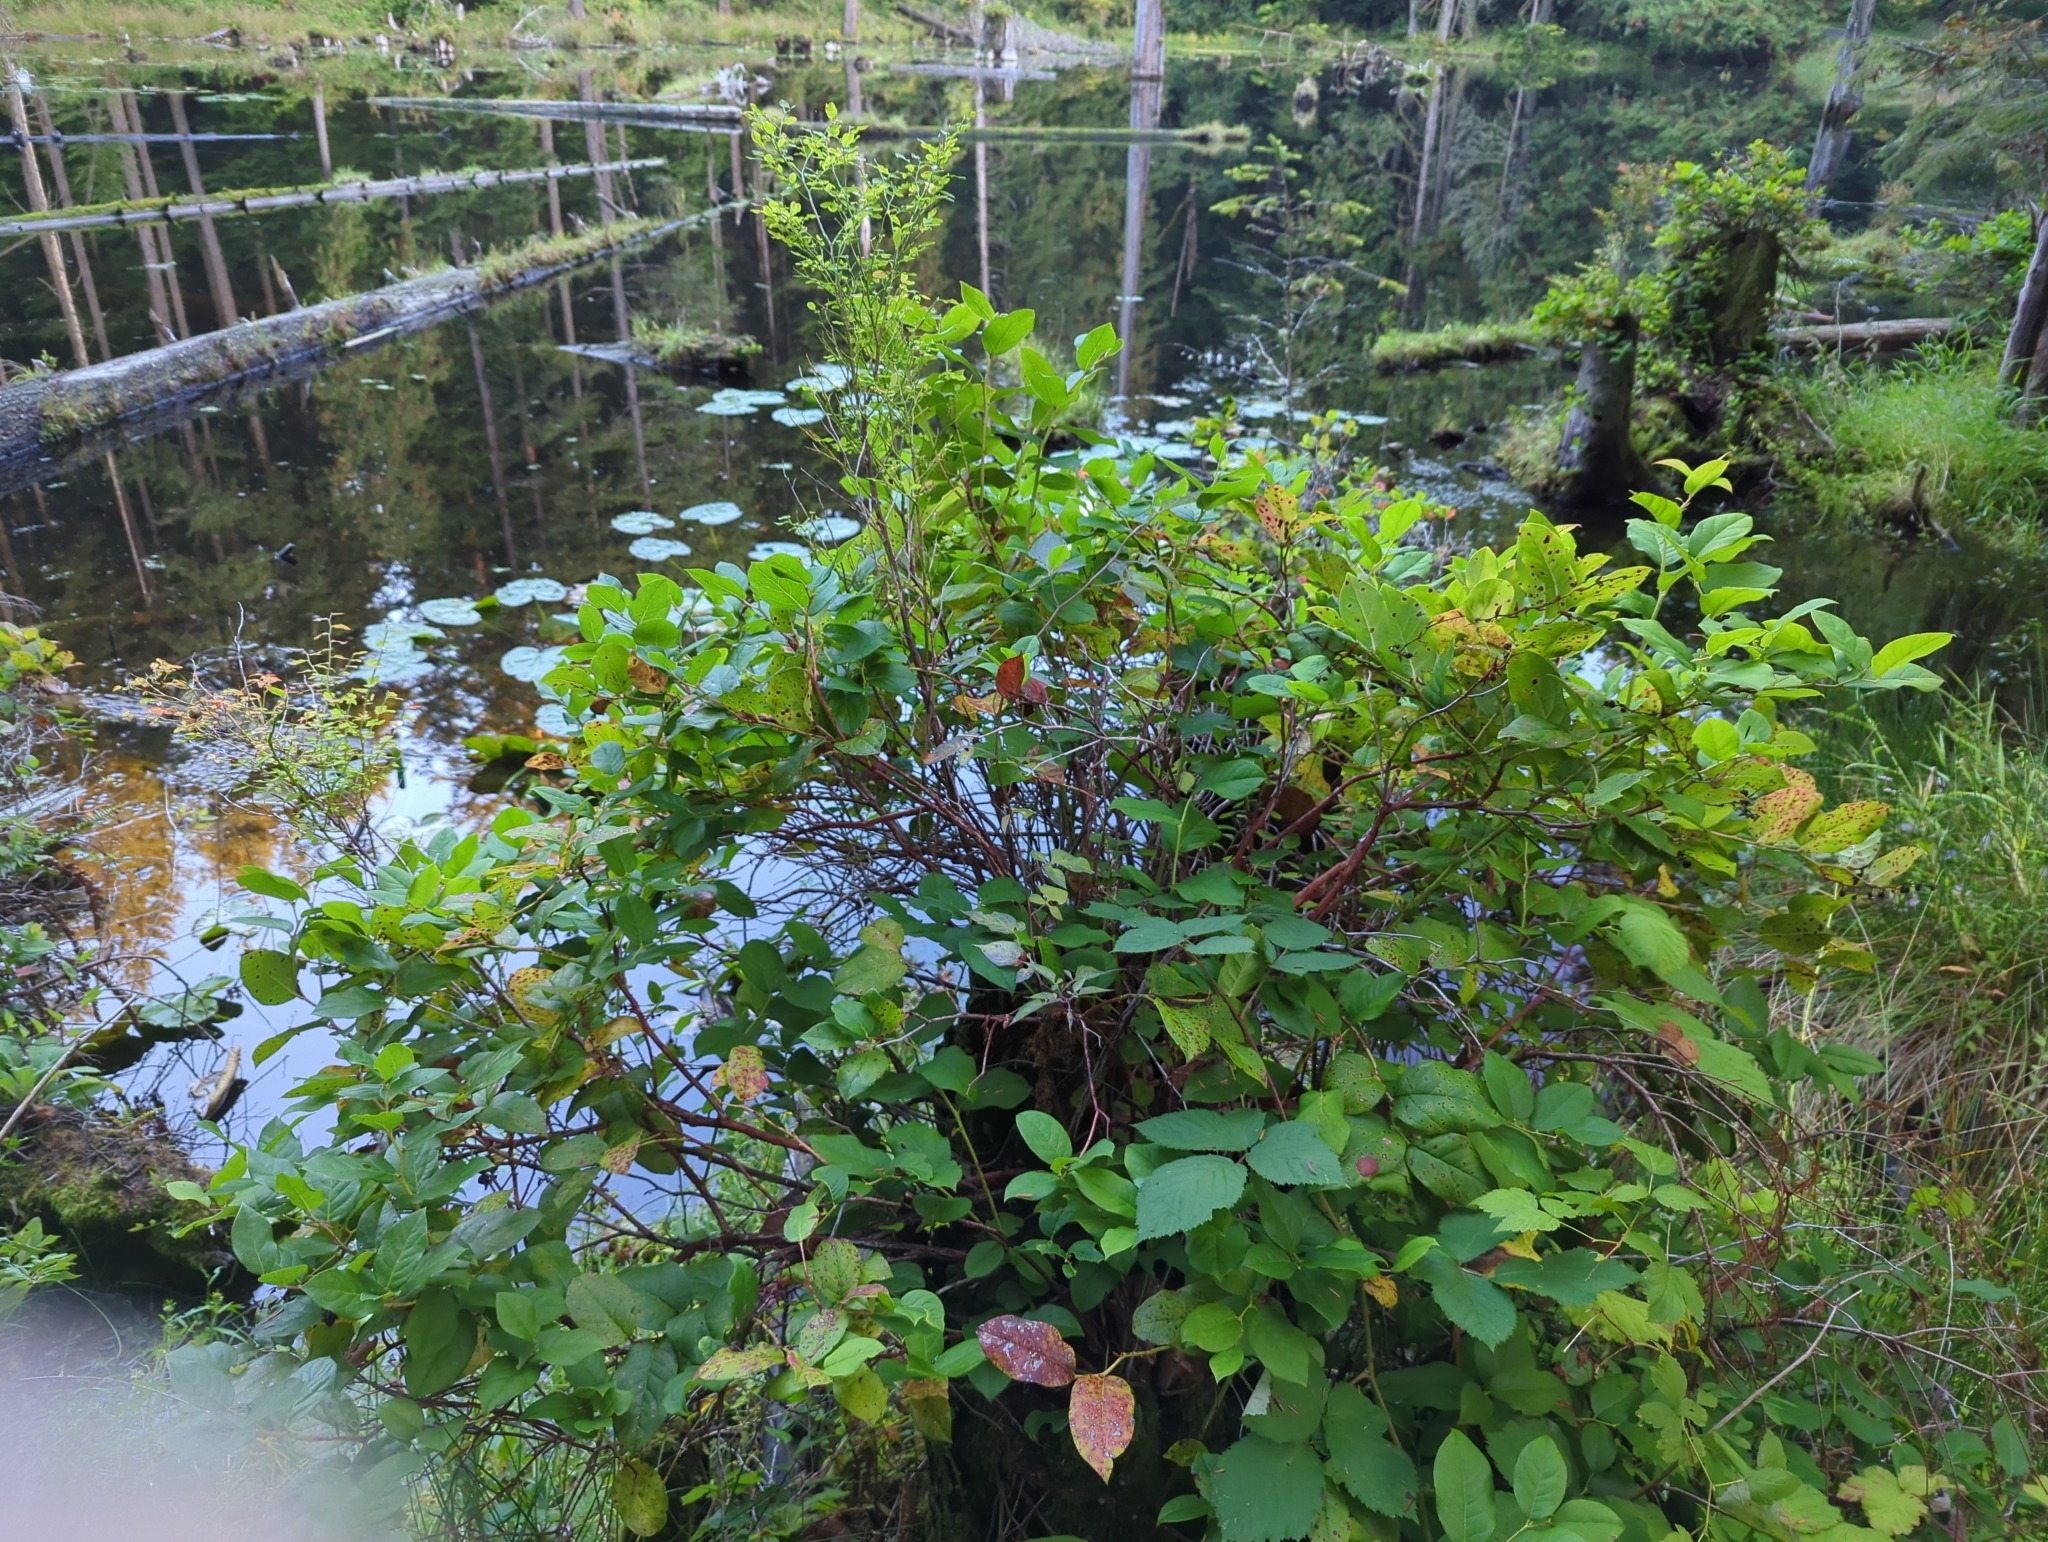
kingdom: Plantae
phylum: Tracheophyta
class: Magnoliopsida
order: Ericales
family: Ericaceae
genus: Gaultheria
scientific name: Gaultheria shallon
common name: Shallon
